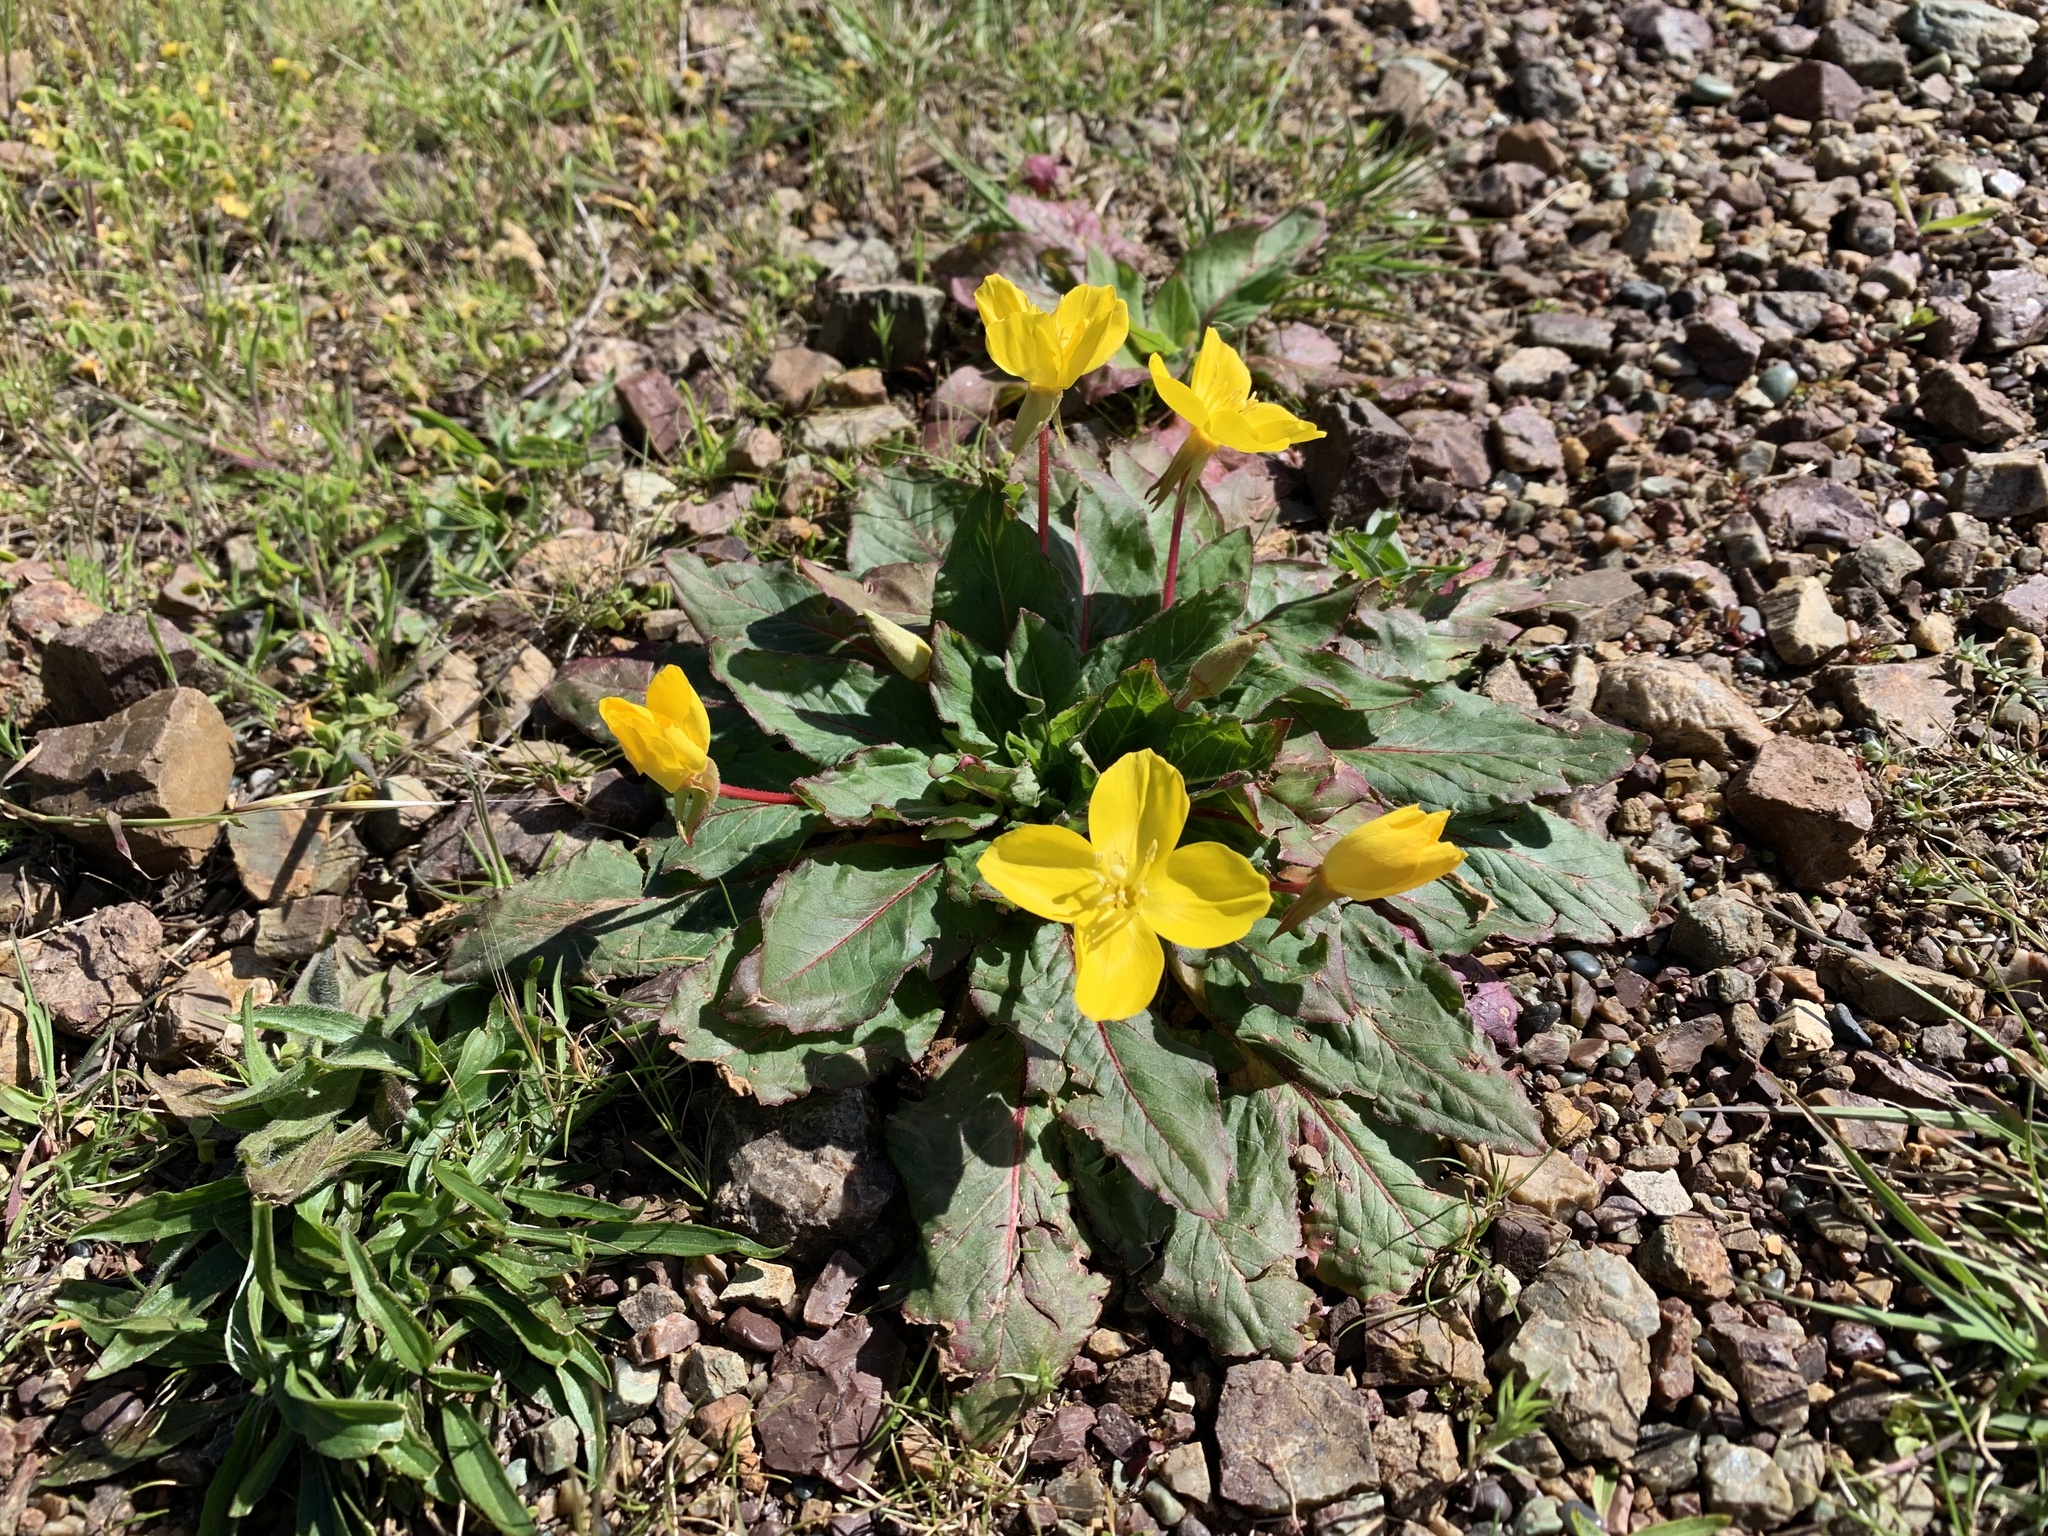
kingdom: Plantae
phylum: Tracheophyta
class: Magnoliopsida
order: Myrtales
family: Onagraceae
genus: Taraxia
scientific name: Taraxia ovata
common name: Goldeneggs
